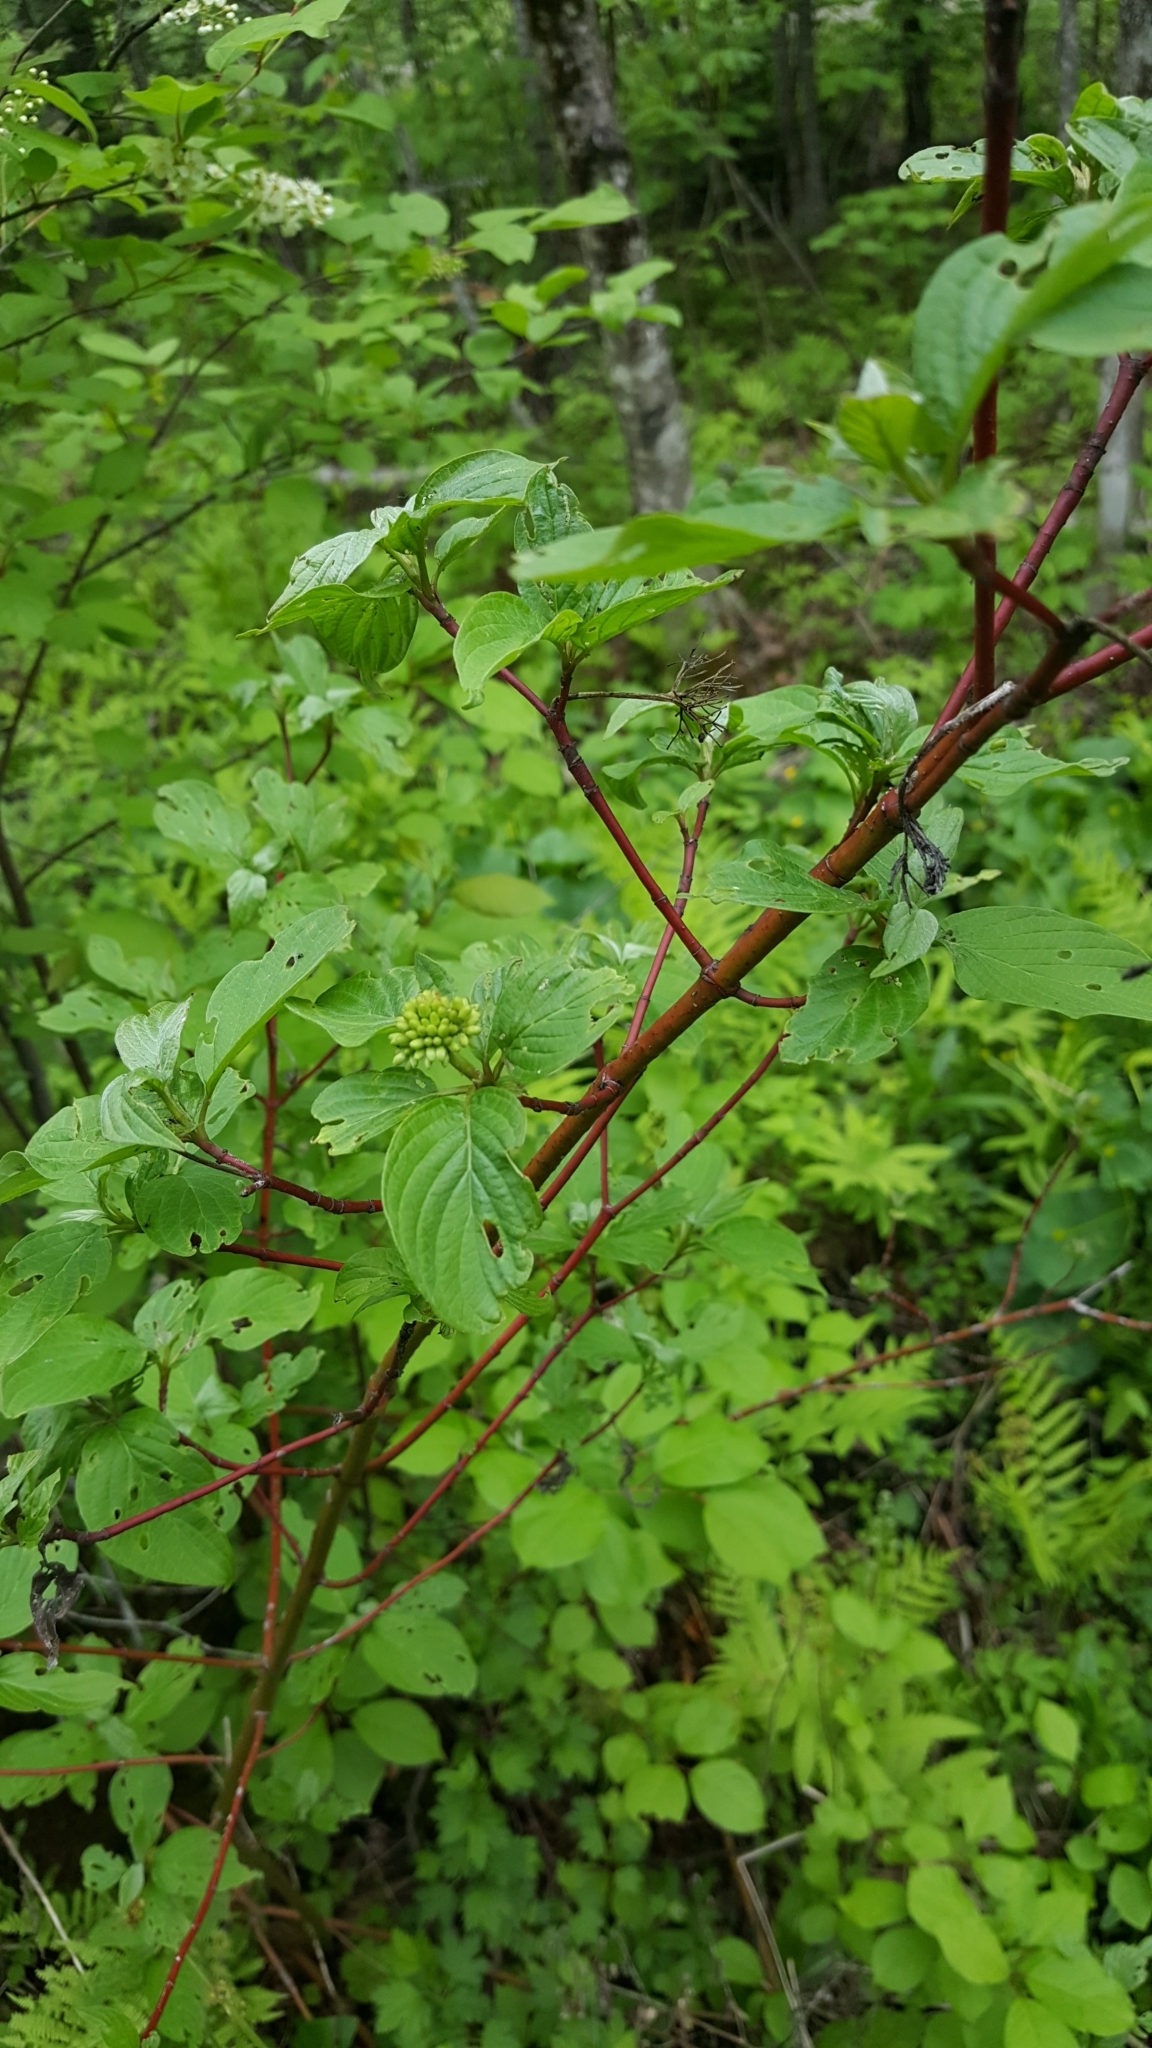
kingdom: Plantae
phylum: Tracheophyta
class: Magnoliopsida
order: Cornales
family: Cornaceae
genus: Cornus
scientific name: Cornus sericea
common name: Red-osier dogwood
